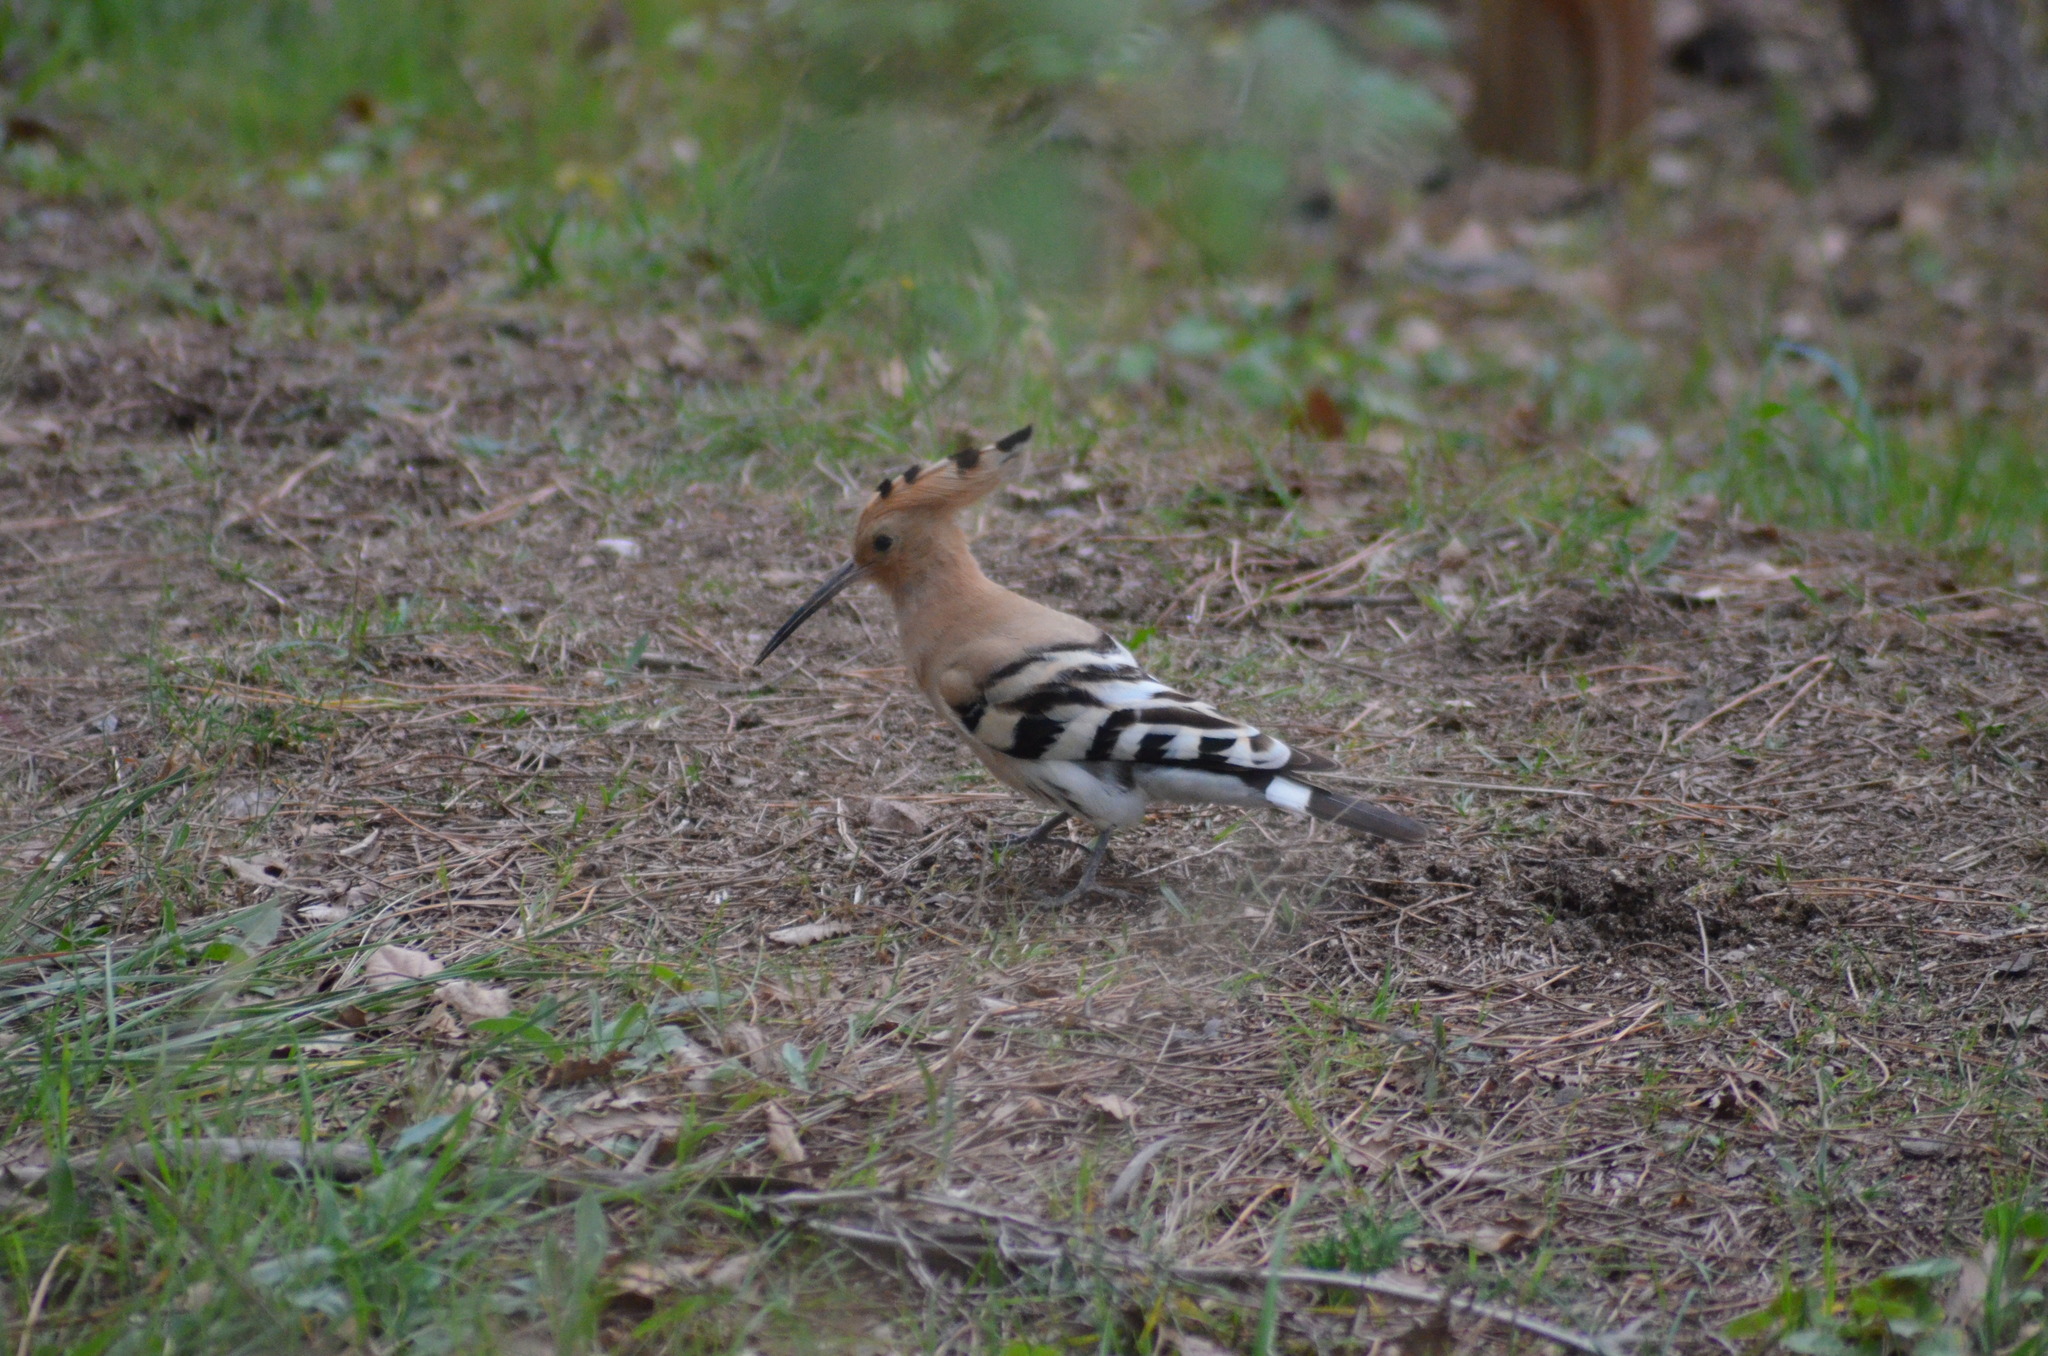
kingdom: Animalia
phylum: Chordata
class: Aves
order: Bucerotiformes
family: Upupidae
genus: Upupa
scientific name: Upupa epops
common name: Eurasian hoopoe
